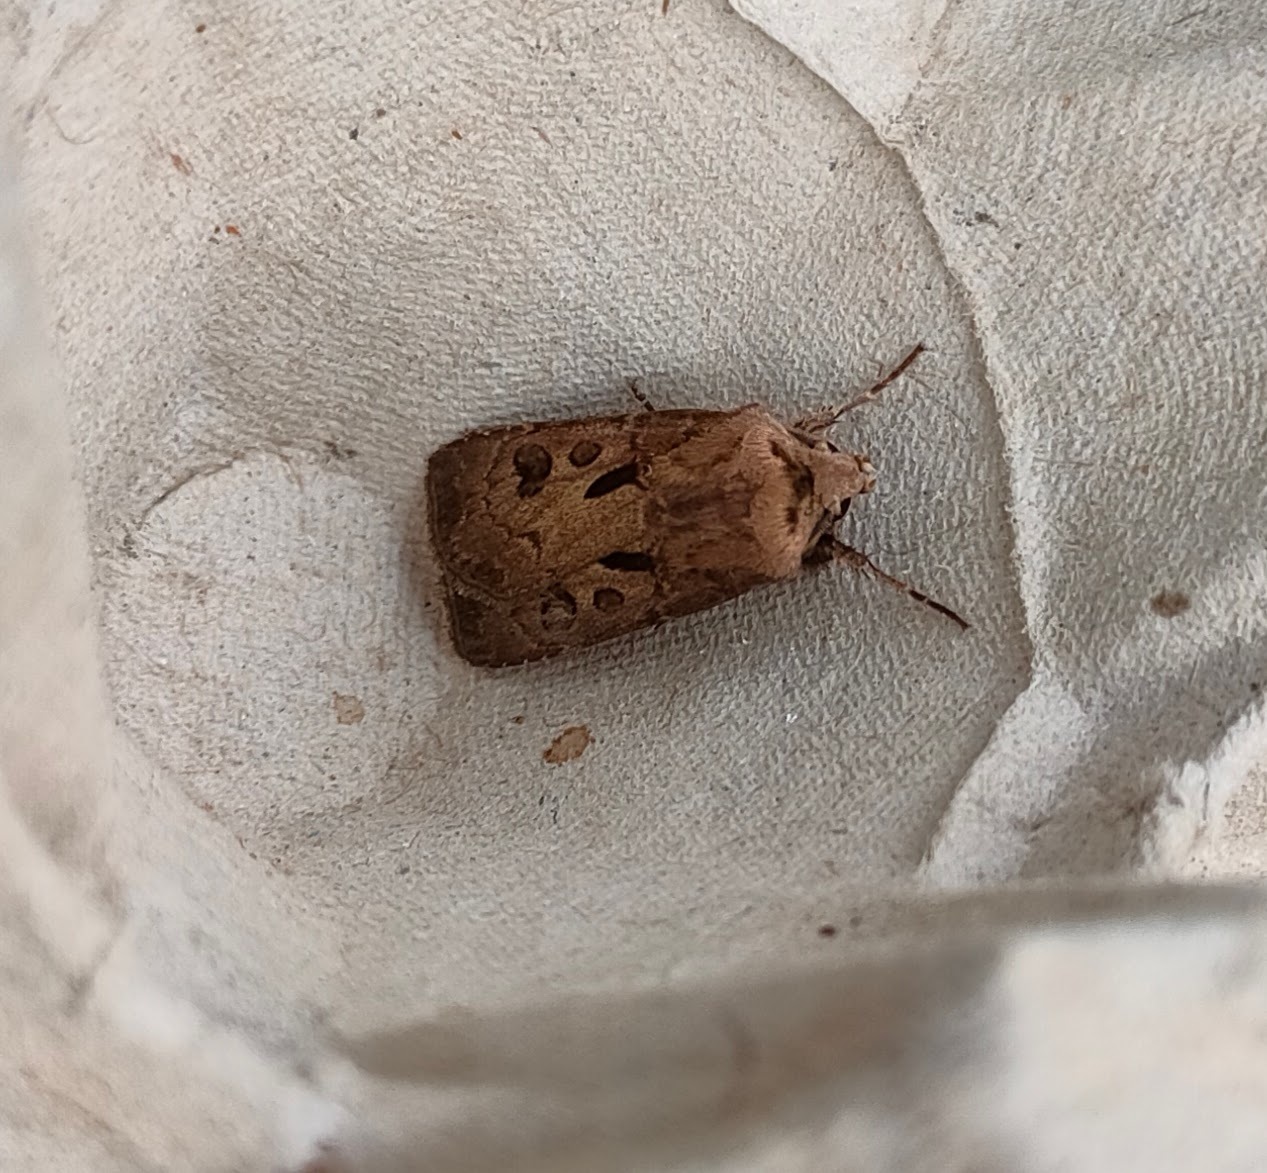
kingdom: Animalia
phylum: Arthropoda
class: Insecta
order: Lepidoptera
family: Noctuidae
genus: Agrotis
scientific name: Agrotis exclamationis
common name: Heart and dart
